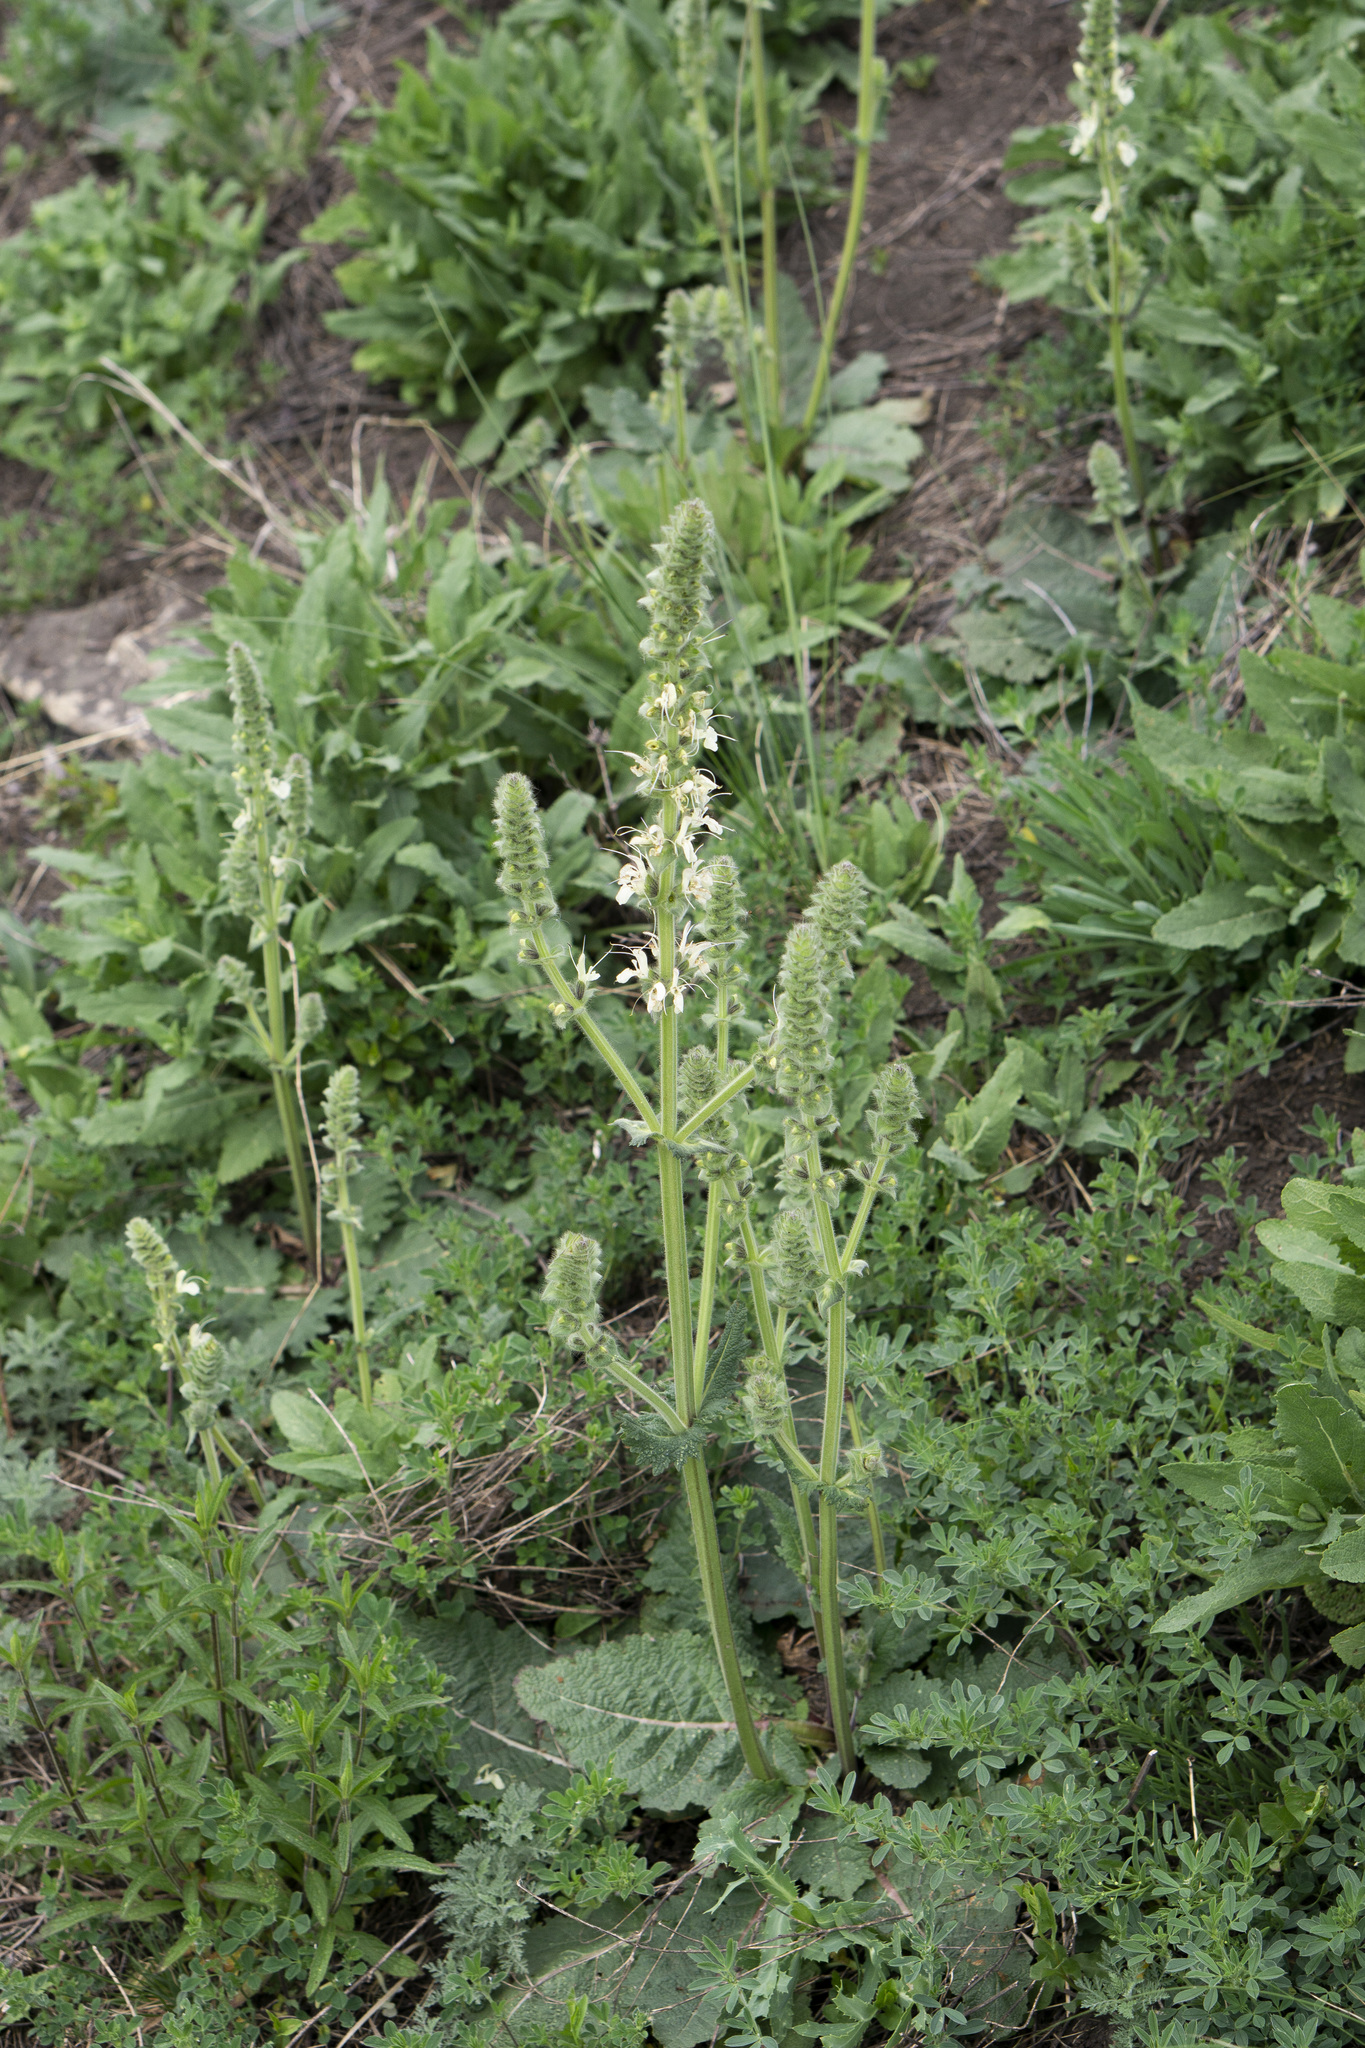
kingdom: Plantae
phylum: Tracheophyta
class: Magnoliopsida
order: Lamiales
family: Lamiaceae
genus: Salvia
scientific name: Salvia austriaca
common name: Austrian sage
